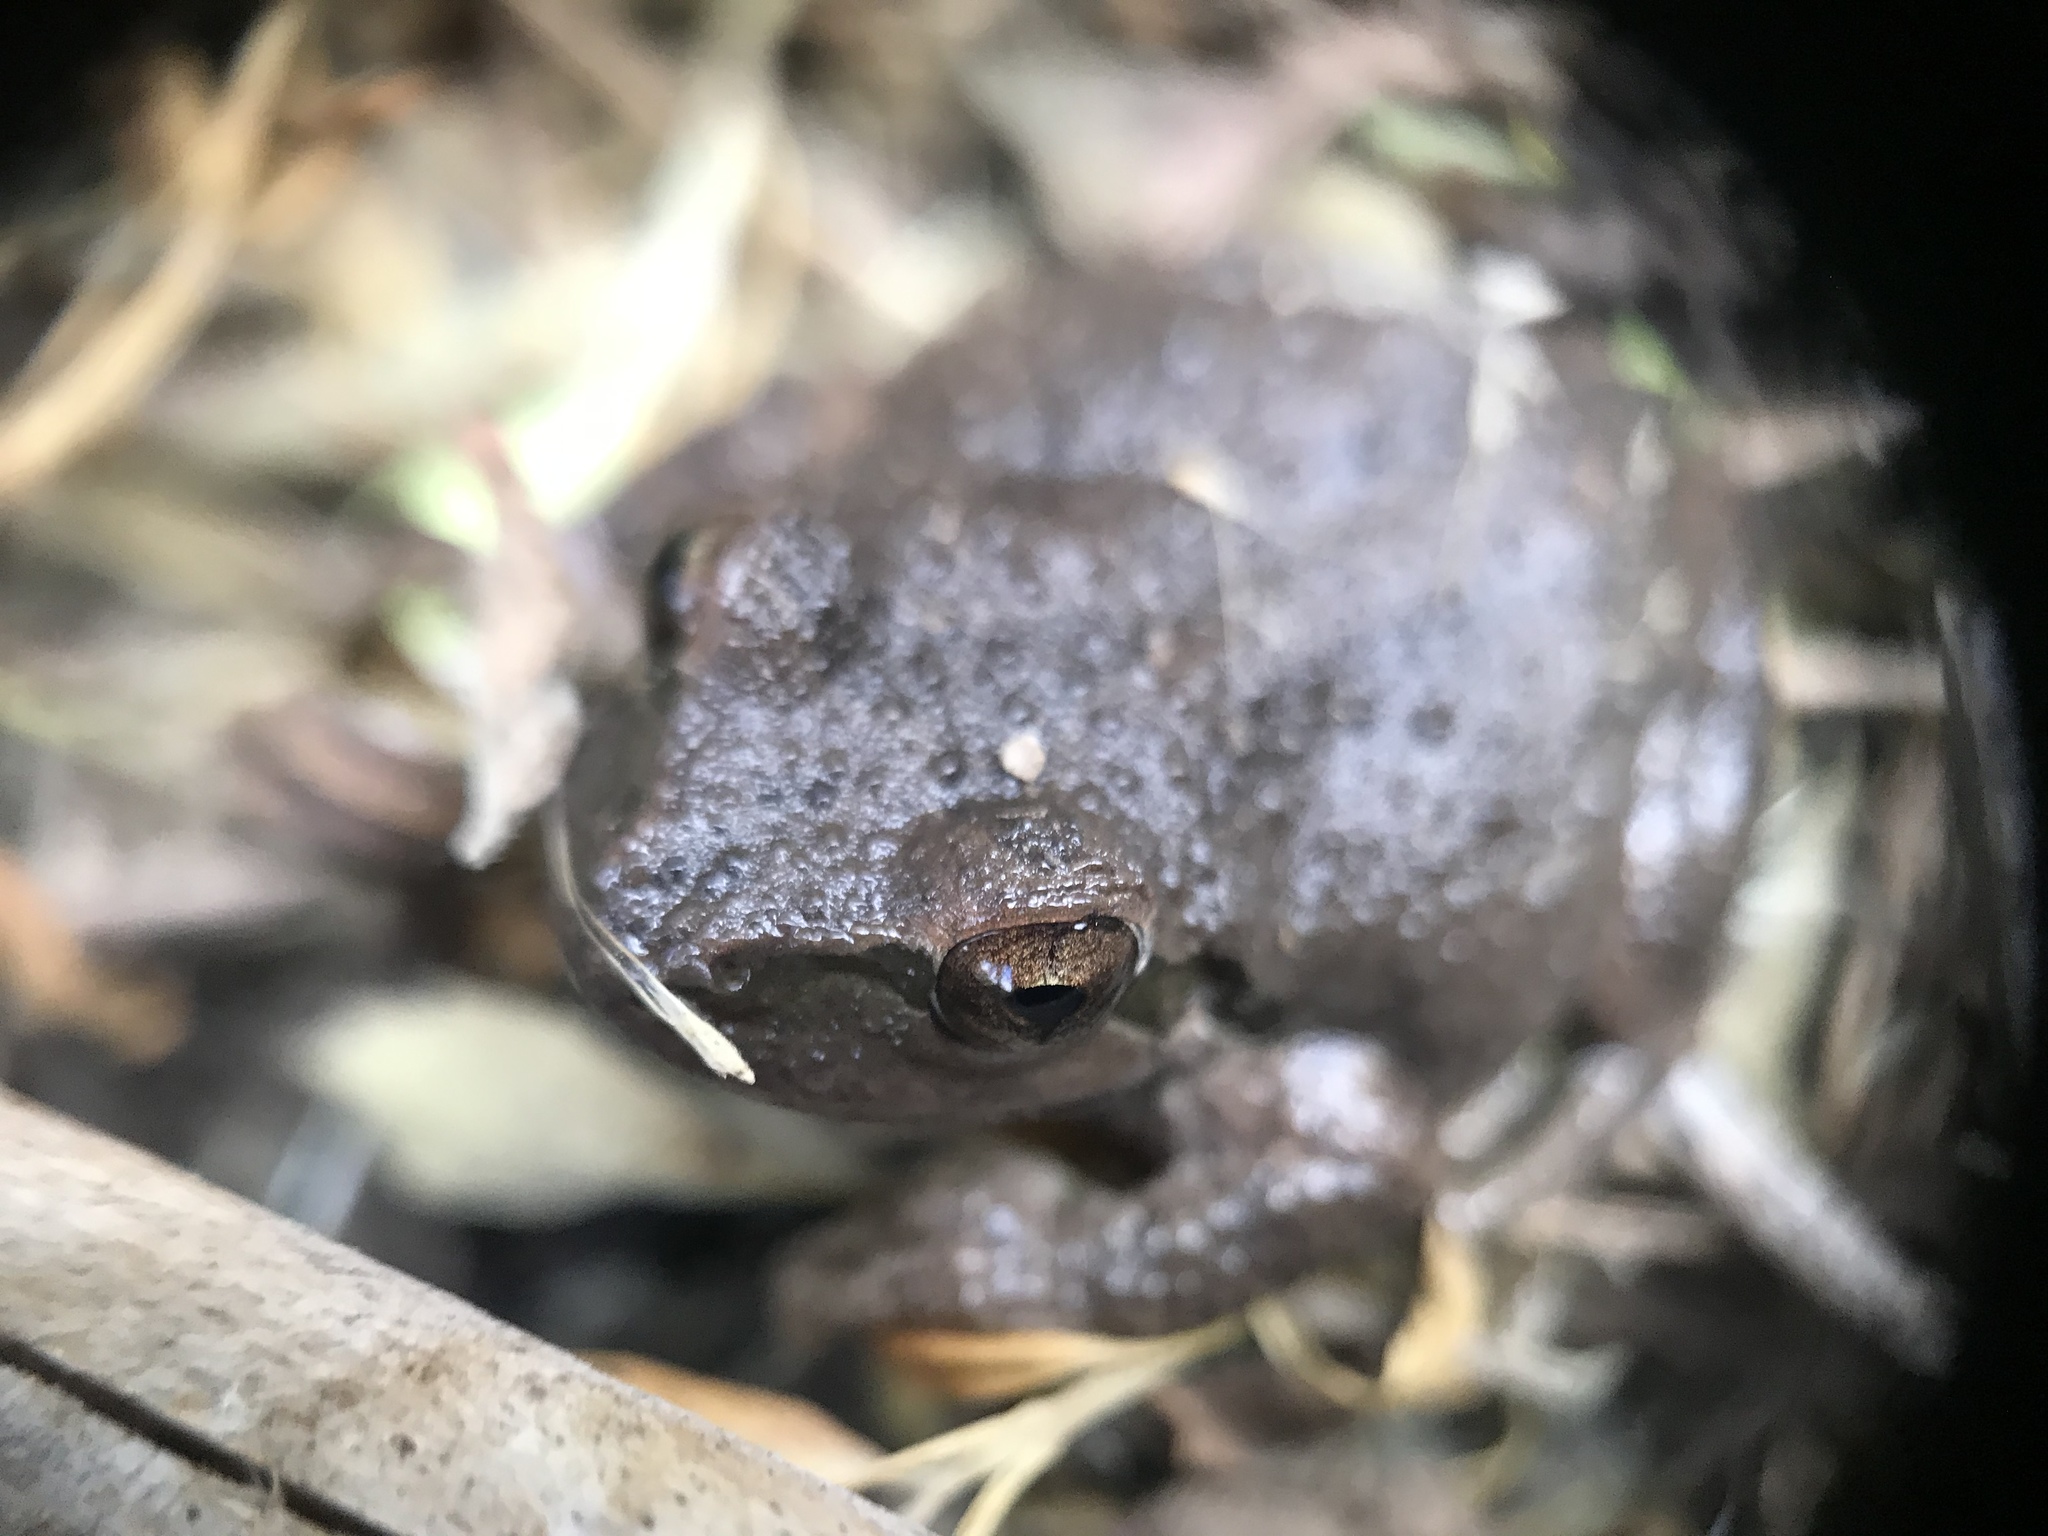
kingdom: Animalia
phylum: Chordata
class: Amphibia
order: Anura
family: Hylidae
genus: Pseudacris
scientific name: Pseudacris regilla
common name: Pacific chorus frog
